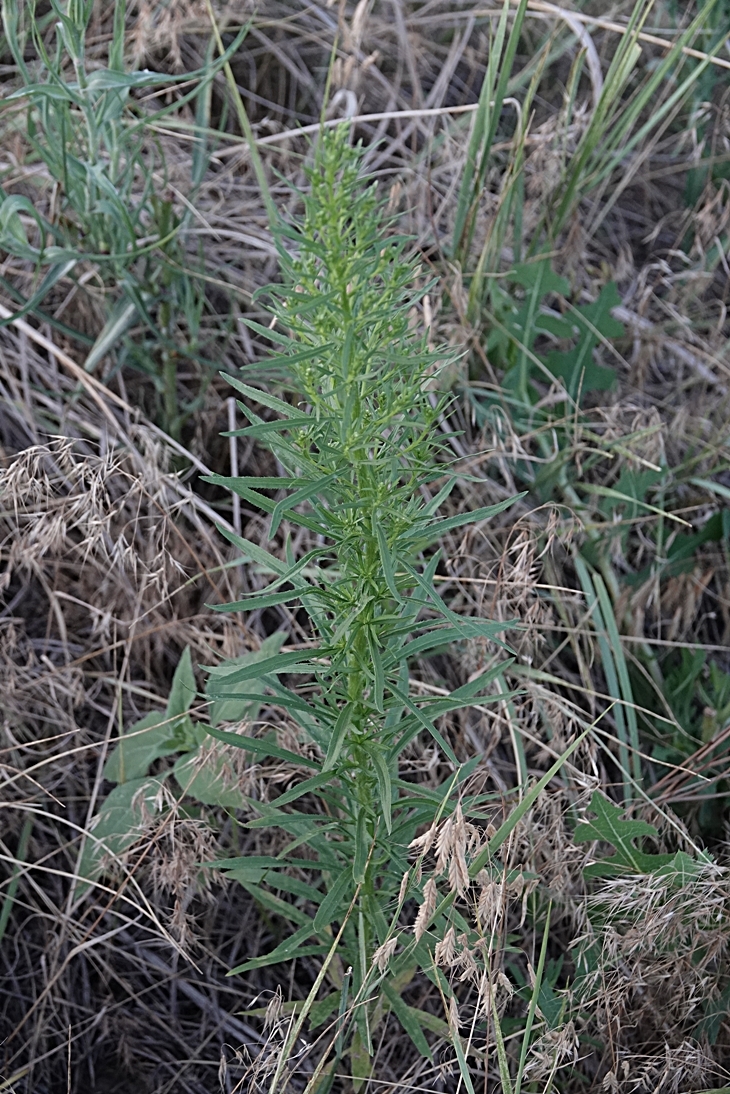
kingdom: Plantae
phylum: Tracheophyta
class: Magnoliopsida
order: Asterales
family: Asteraceae
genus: Erigeron
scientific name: Erigeron canadensis
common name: Canadian fleabane
